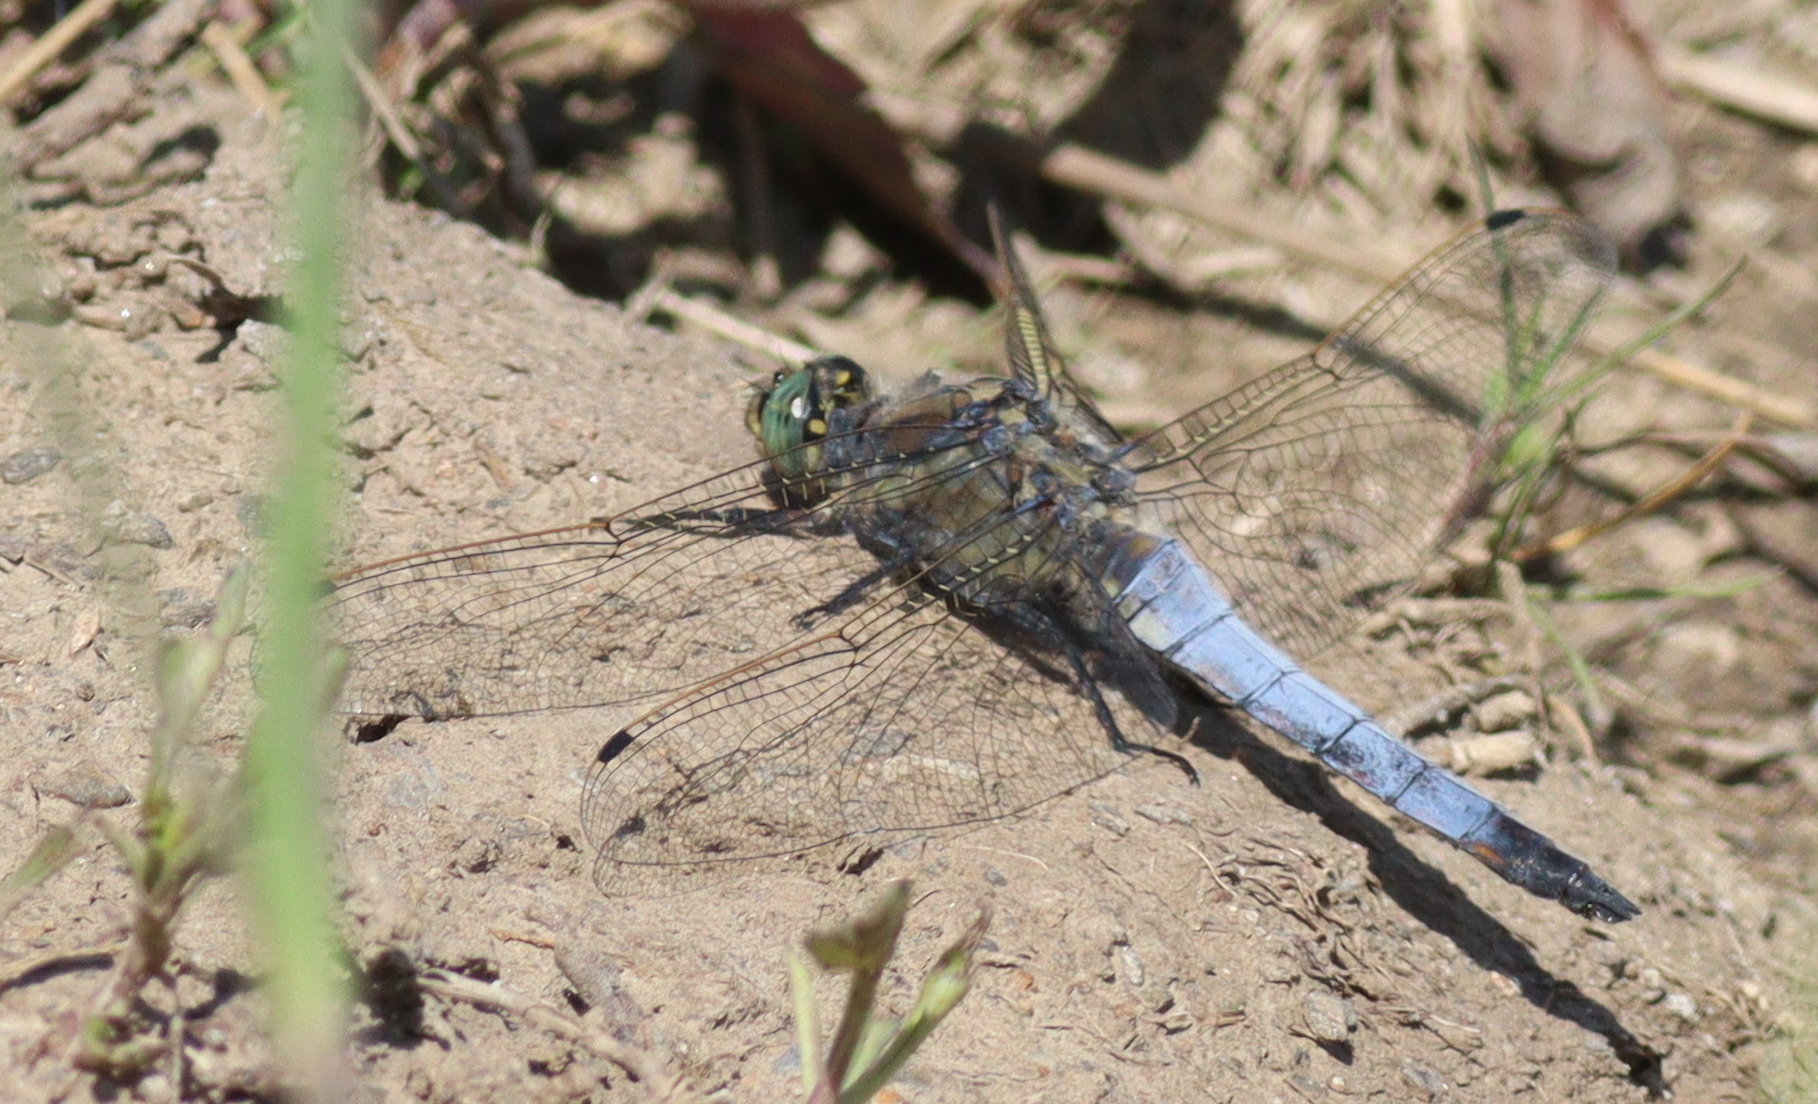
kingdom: Animalia
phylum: Arthropoda
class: Insecta
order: Odonata
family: Libellulidae
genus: Orthetrum
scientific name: Orthetrum cancellatum
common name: Black-tailed skimmer
